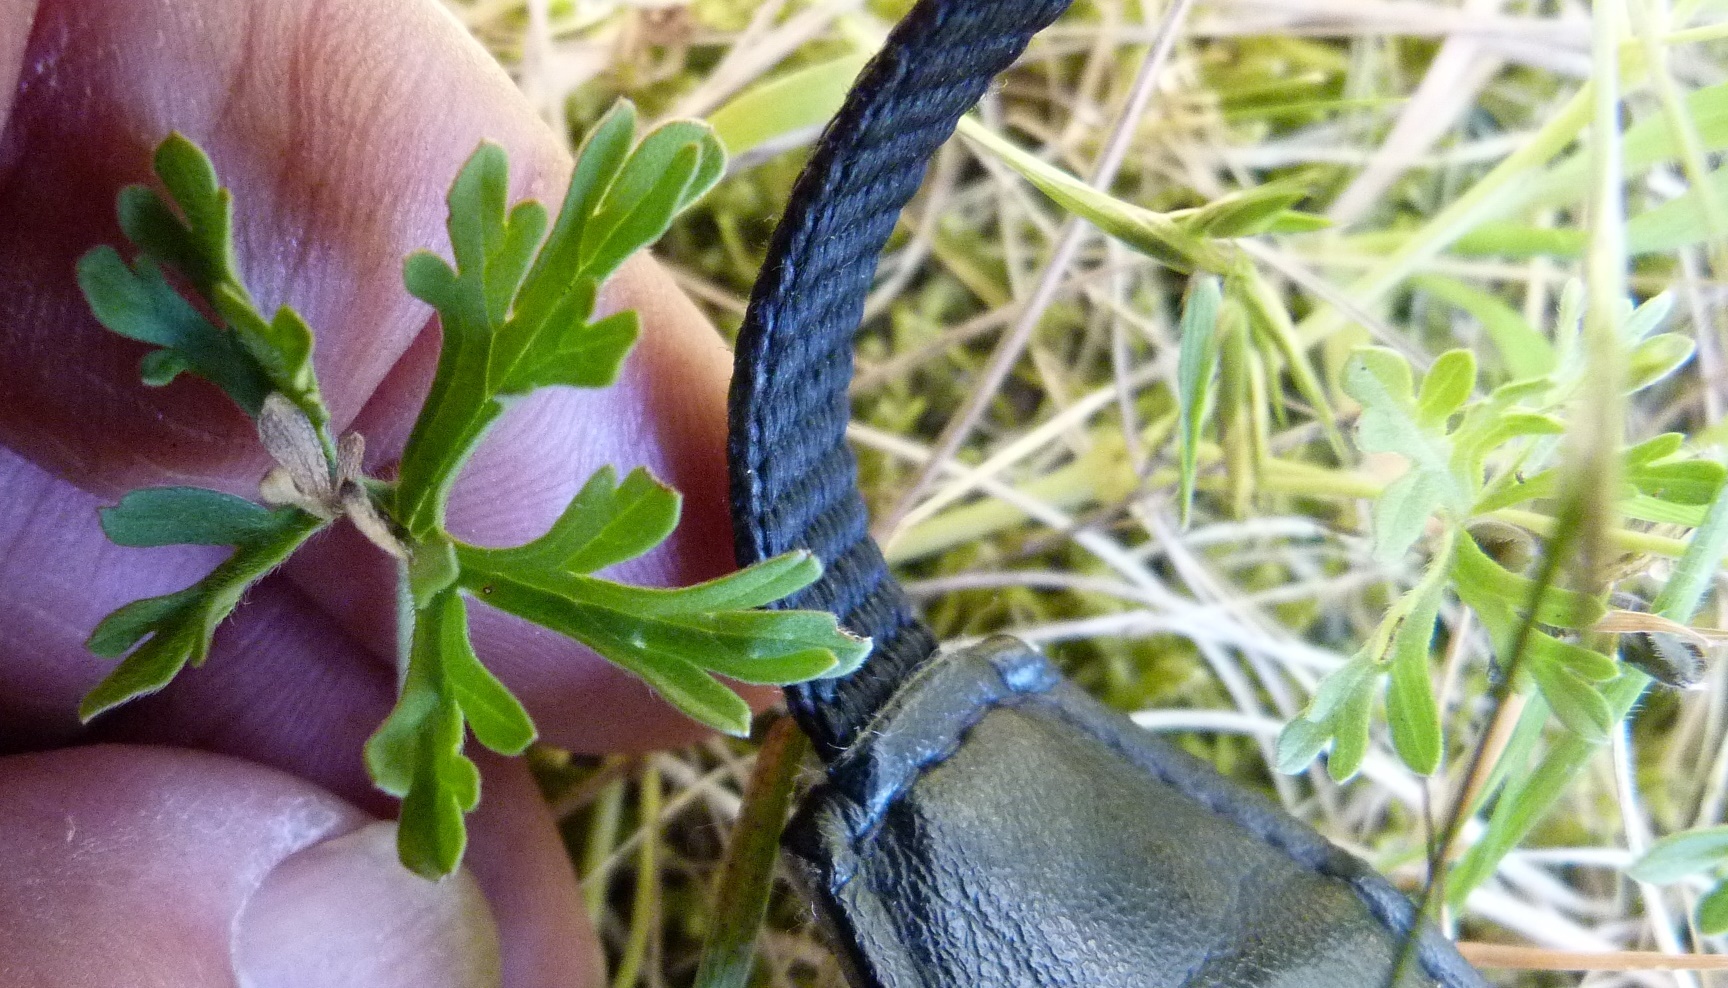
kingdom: Plantae
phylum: Tracheophyta
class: Magnoliopsida
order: Geraniales
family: Geraniaceae
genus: Geranium
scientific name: Geranium solanderi
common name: Solander's geranium
